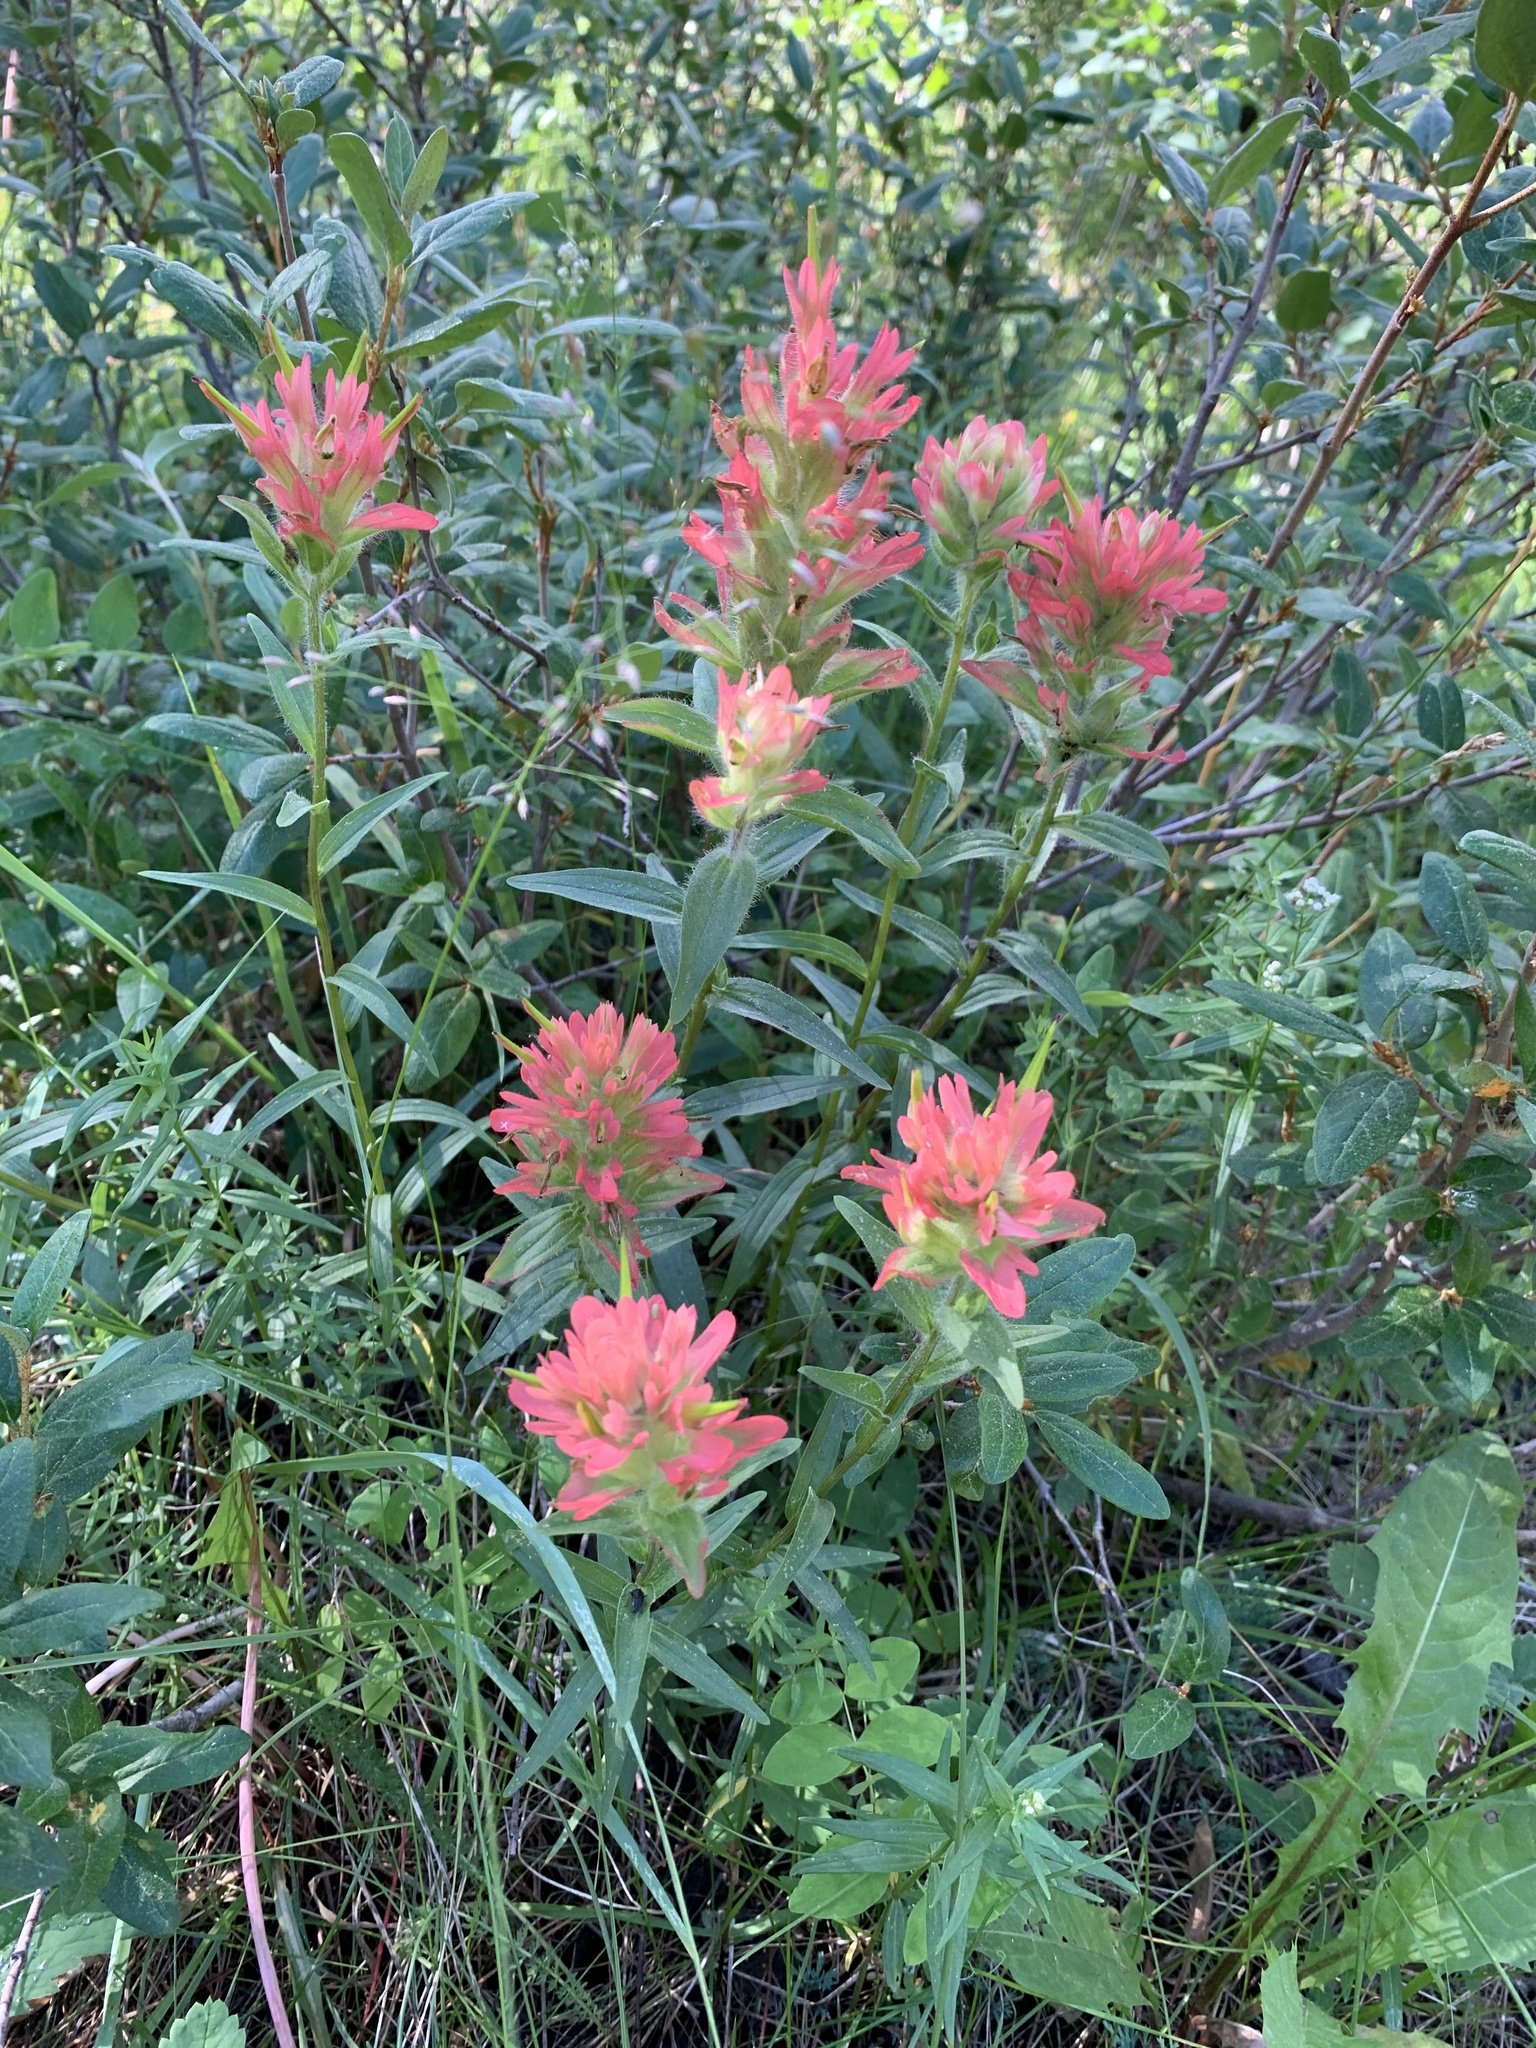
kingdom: Plantae
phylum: Tracheophyta
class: Magnoliopsida
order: Lamiales
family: Orobanchaceae
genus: Castilleja
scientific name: Castilleja miniata
